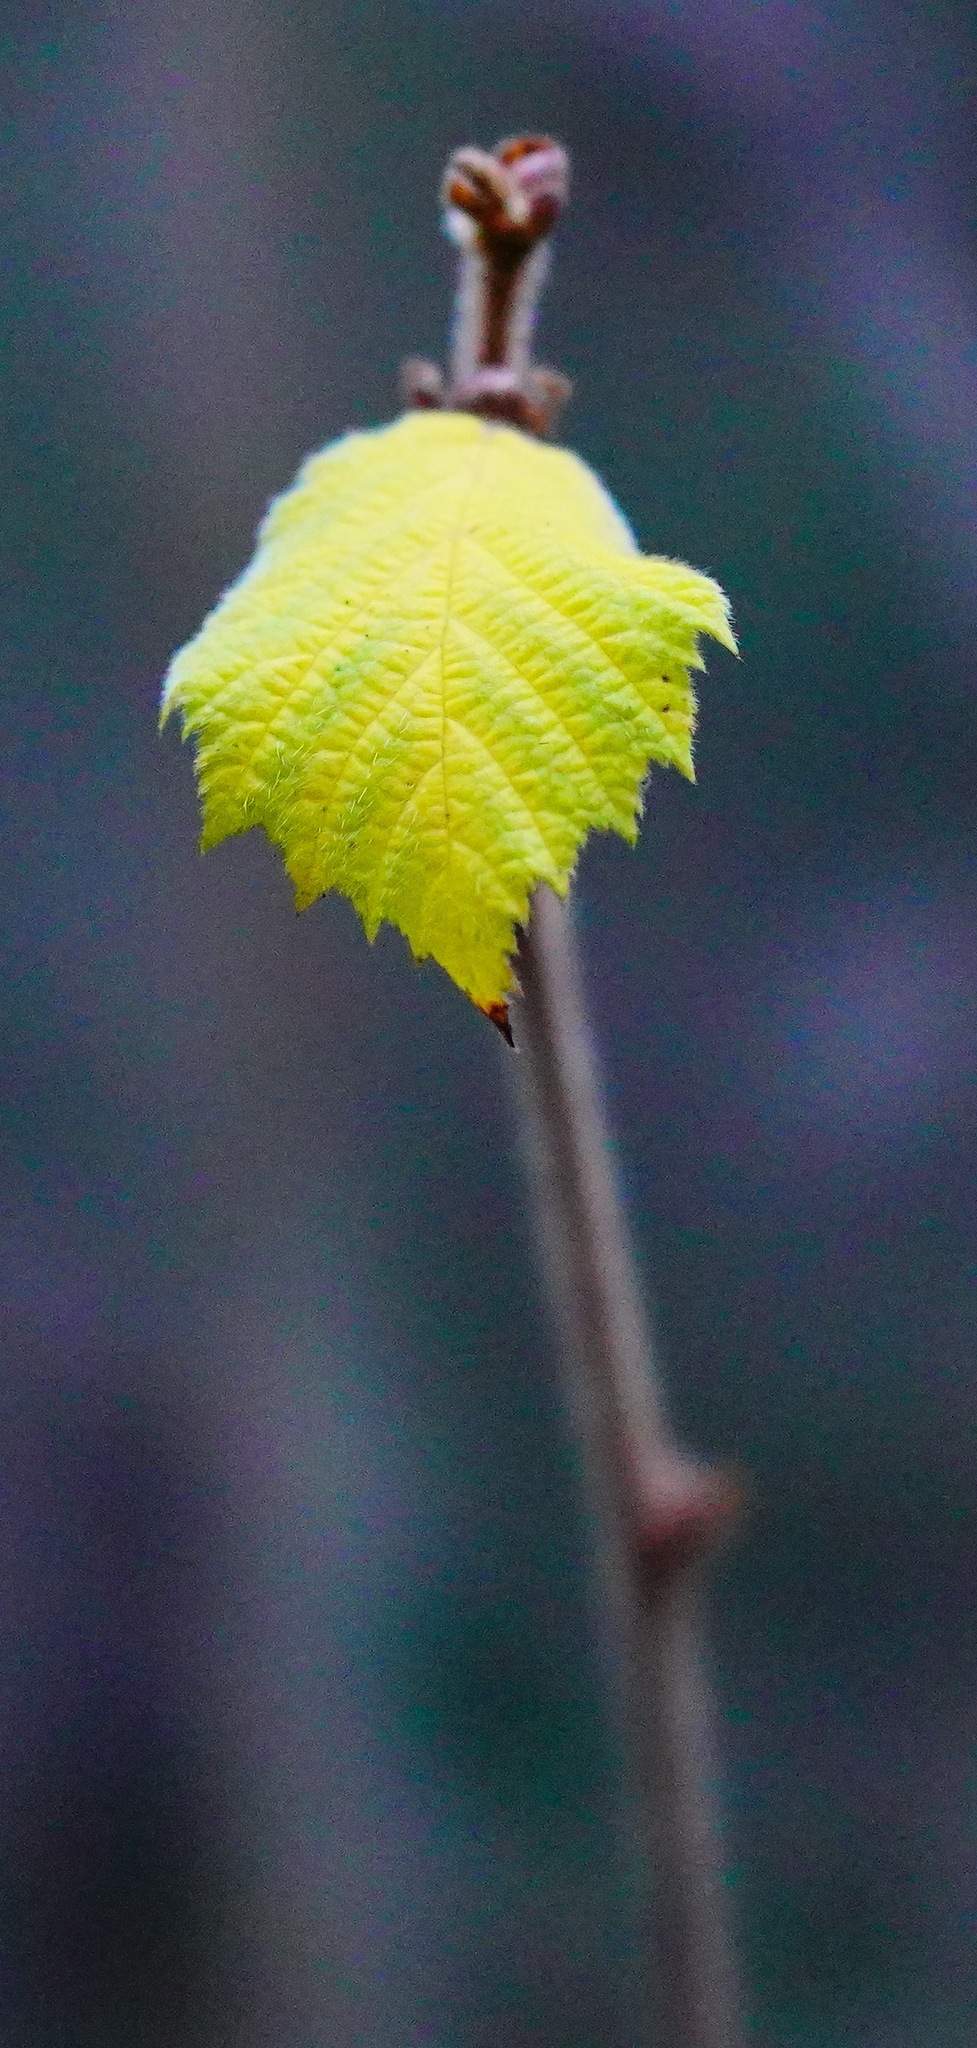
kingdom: Plantae
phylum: Tracheophyta
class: Magnoliopsida
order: Fagales
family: Betulaceae
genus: Corylus
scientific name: Corylus cornuta
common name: Beaked hazel
